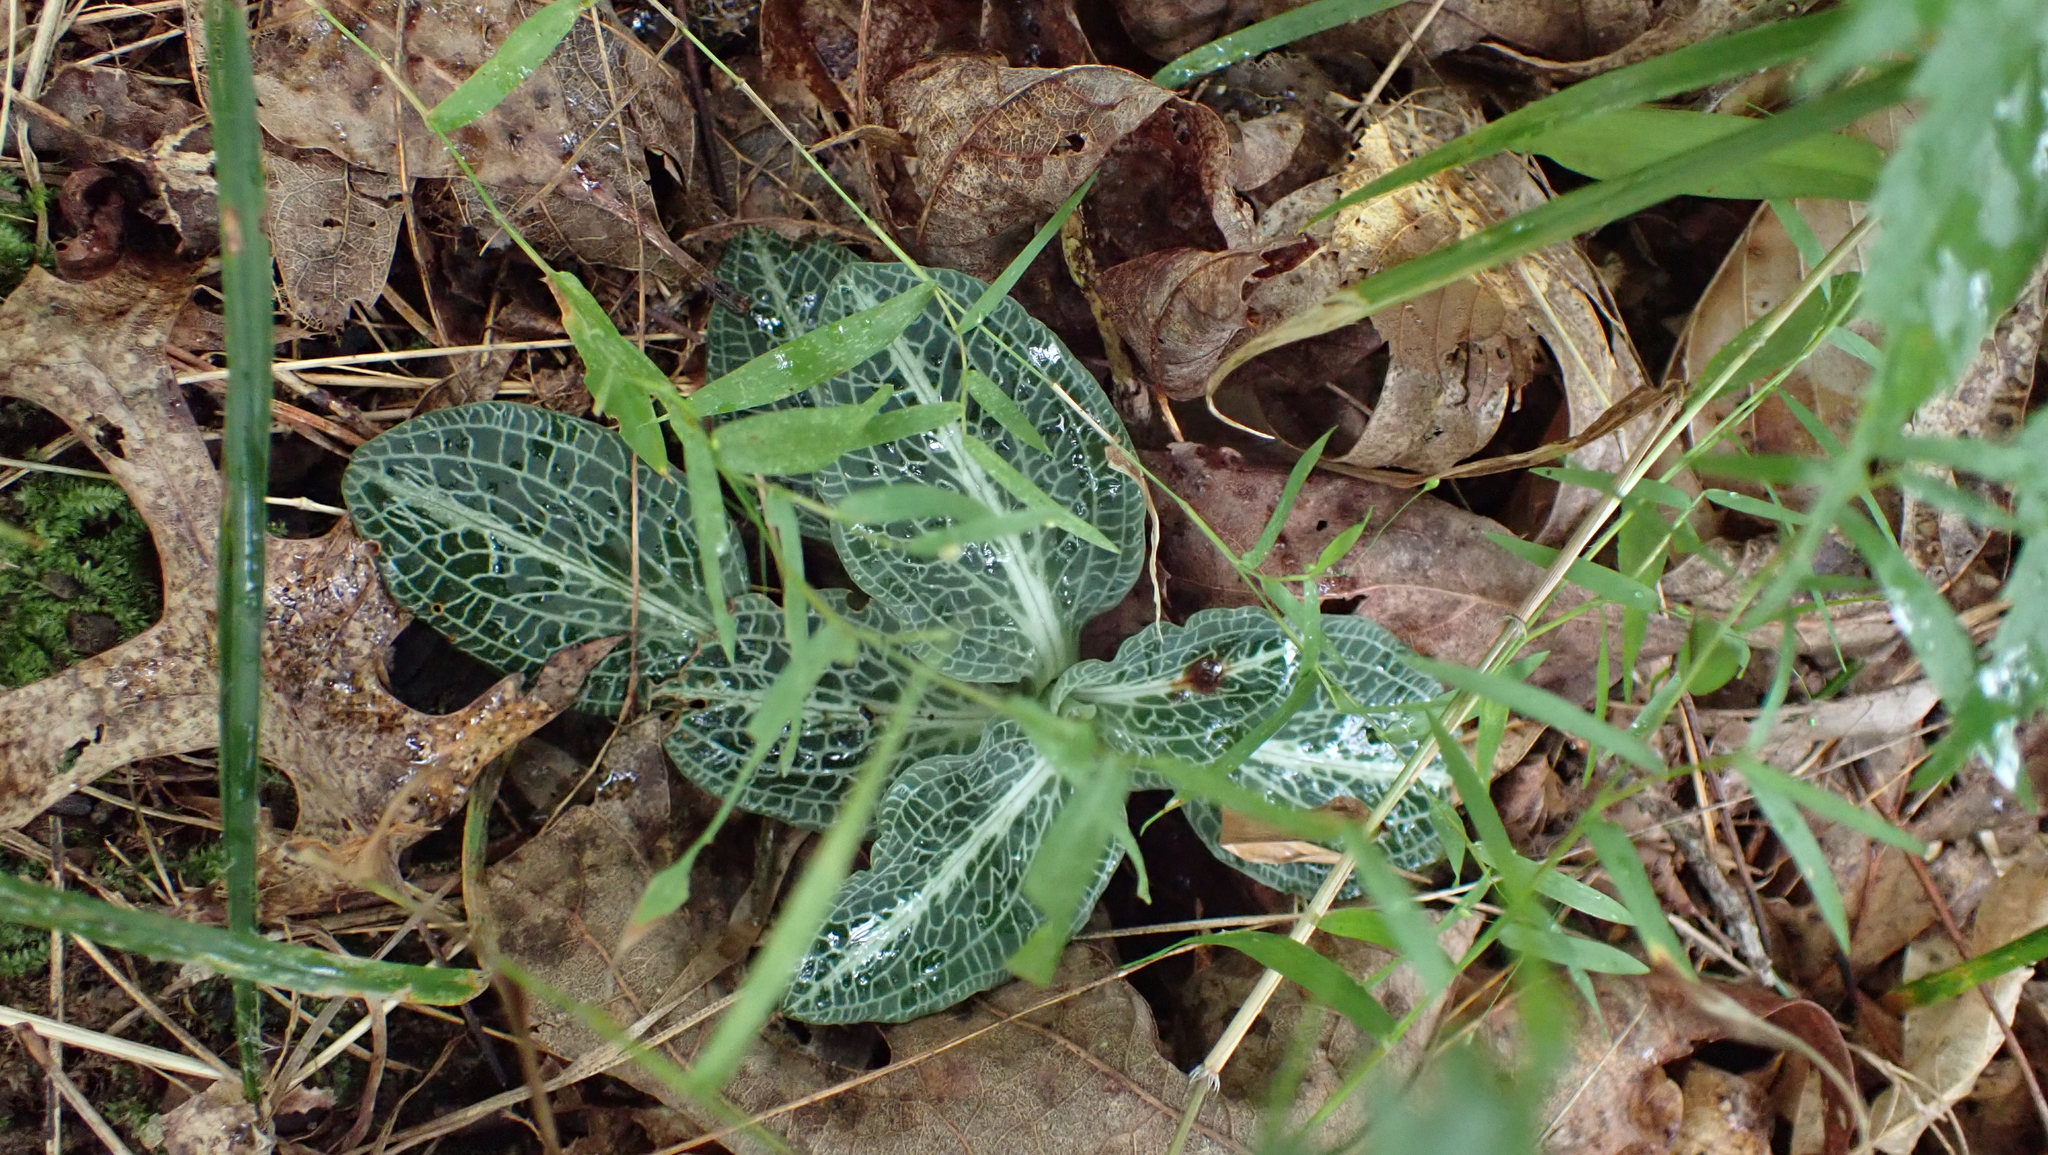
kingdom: Plantae
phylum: Tracheophyta
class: Liliopsida
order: Asparagales
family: Orchidaceae
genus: Goodyera
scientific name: Goodyera pubescens
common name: Downy rattlesnake-plantain
